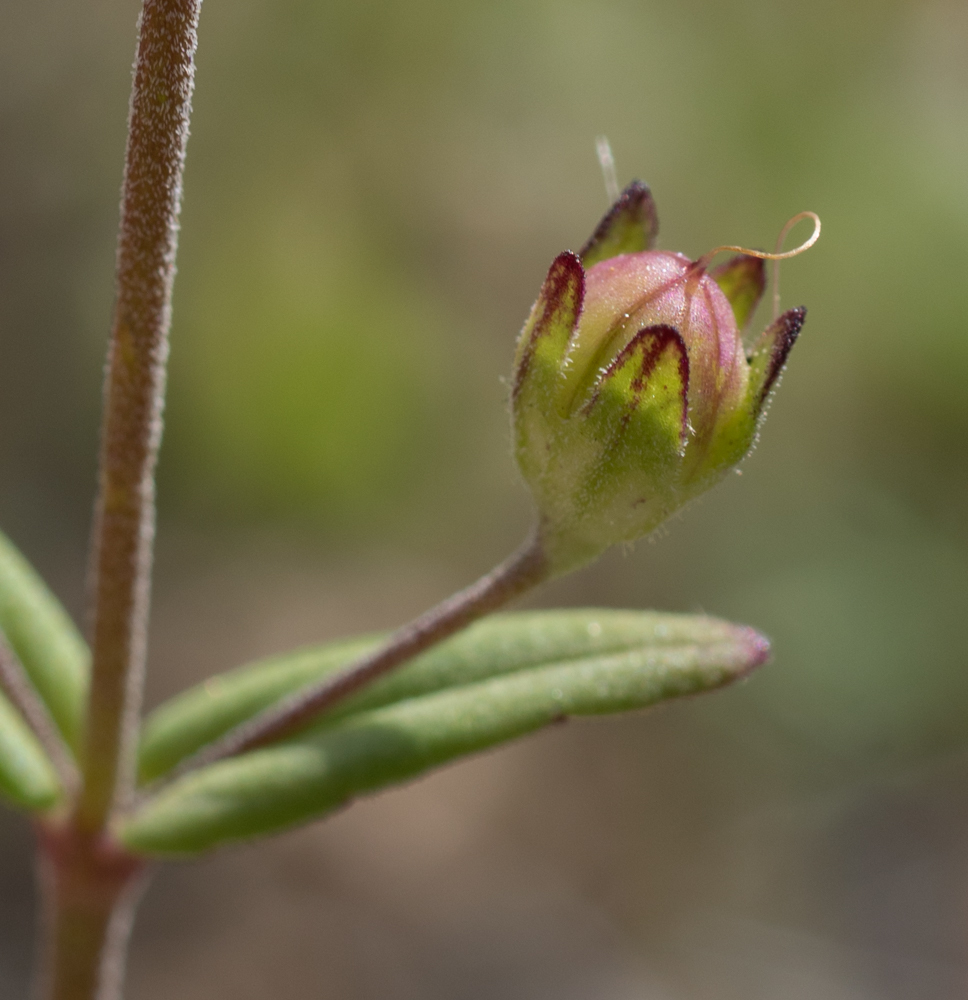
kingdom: Plantae
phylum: Tracheophyta
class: Magnoliopsida
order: Lamiales
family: Plantaginaceae
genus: Collinsia
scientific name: Collinsia callosa
